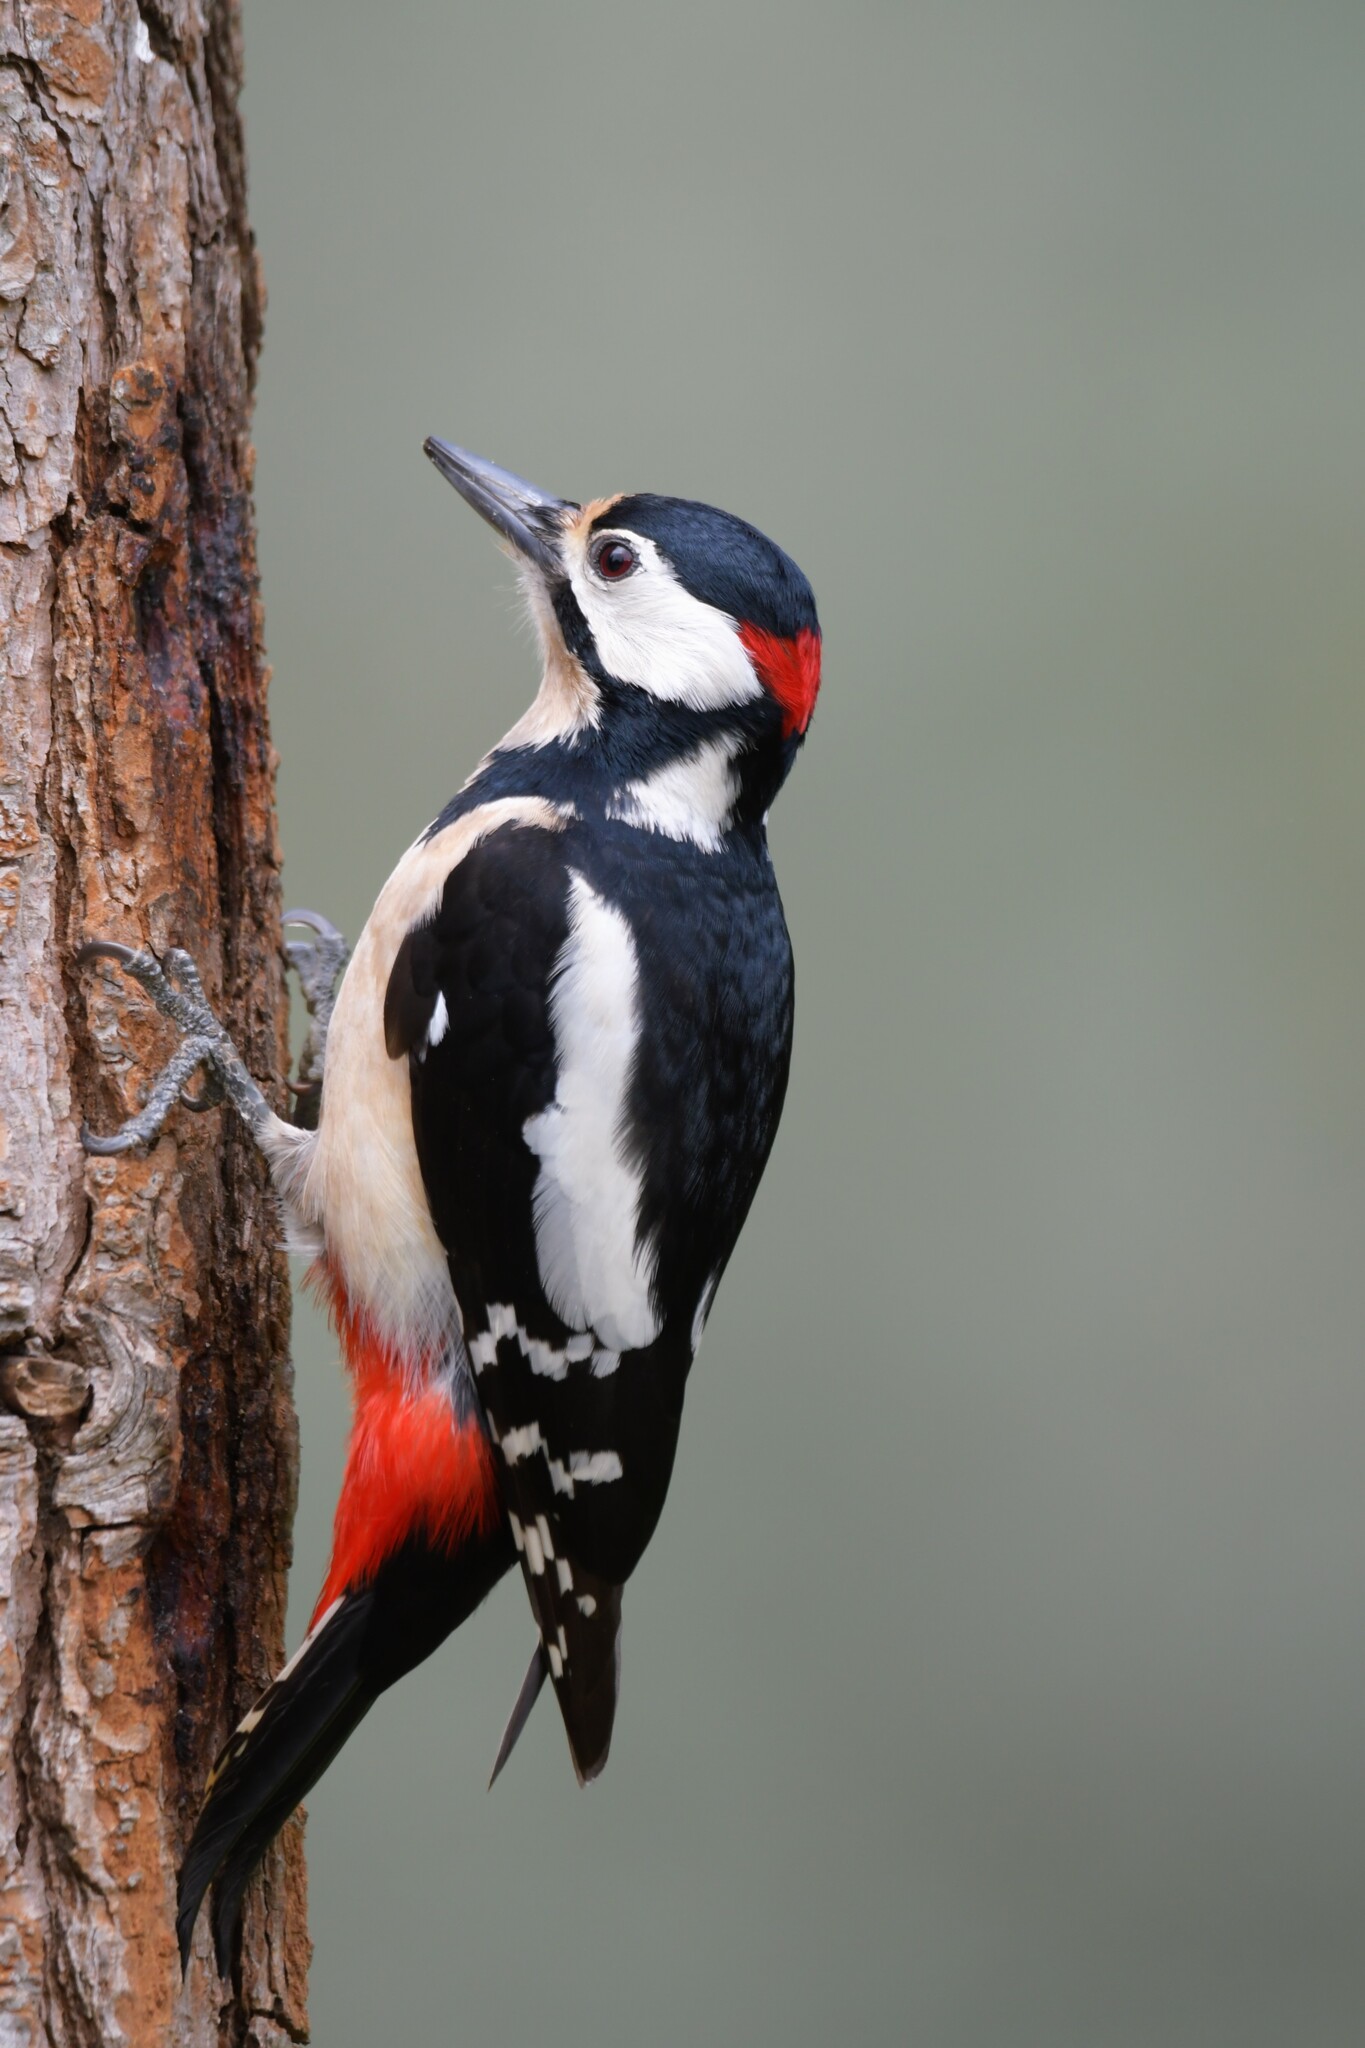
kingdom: Animalia
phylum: Chordata
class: Aves
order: Piciformes
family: Picidae
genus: Dendrocopos
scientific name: Dendrocopos major
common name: Great spotted woodpecker
